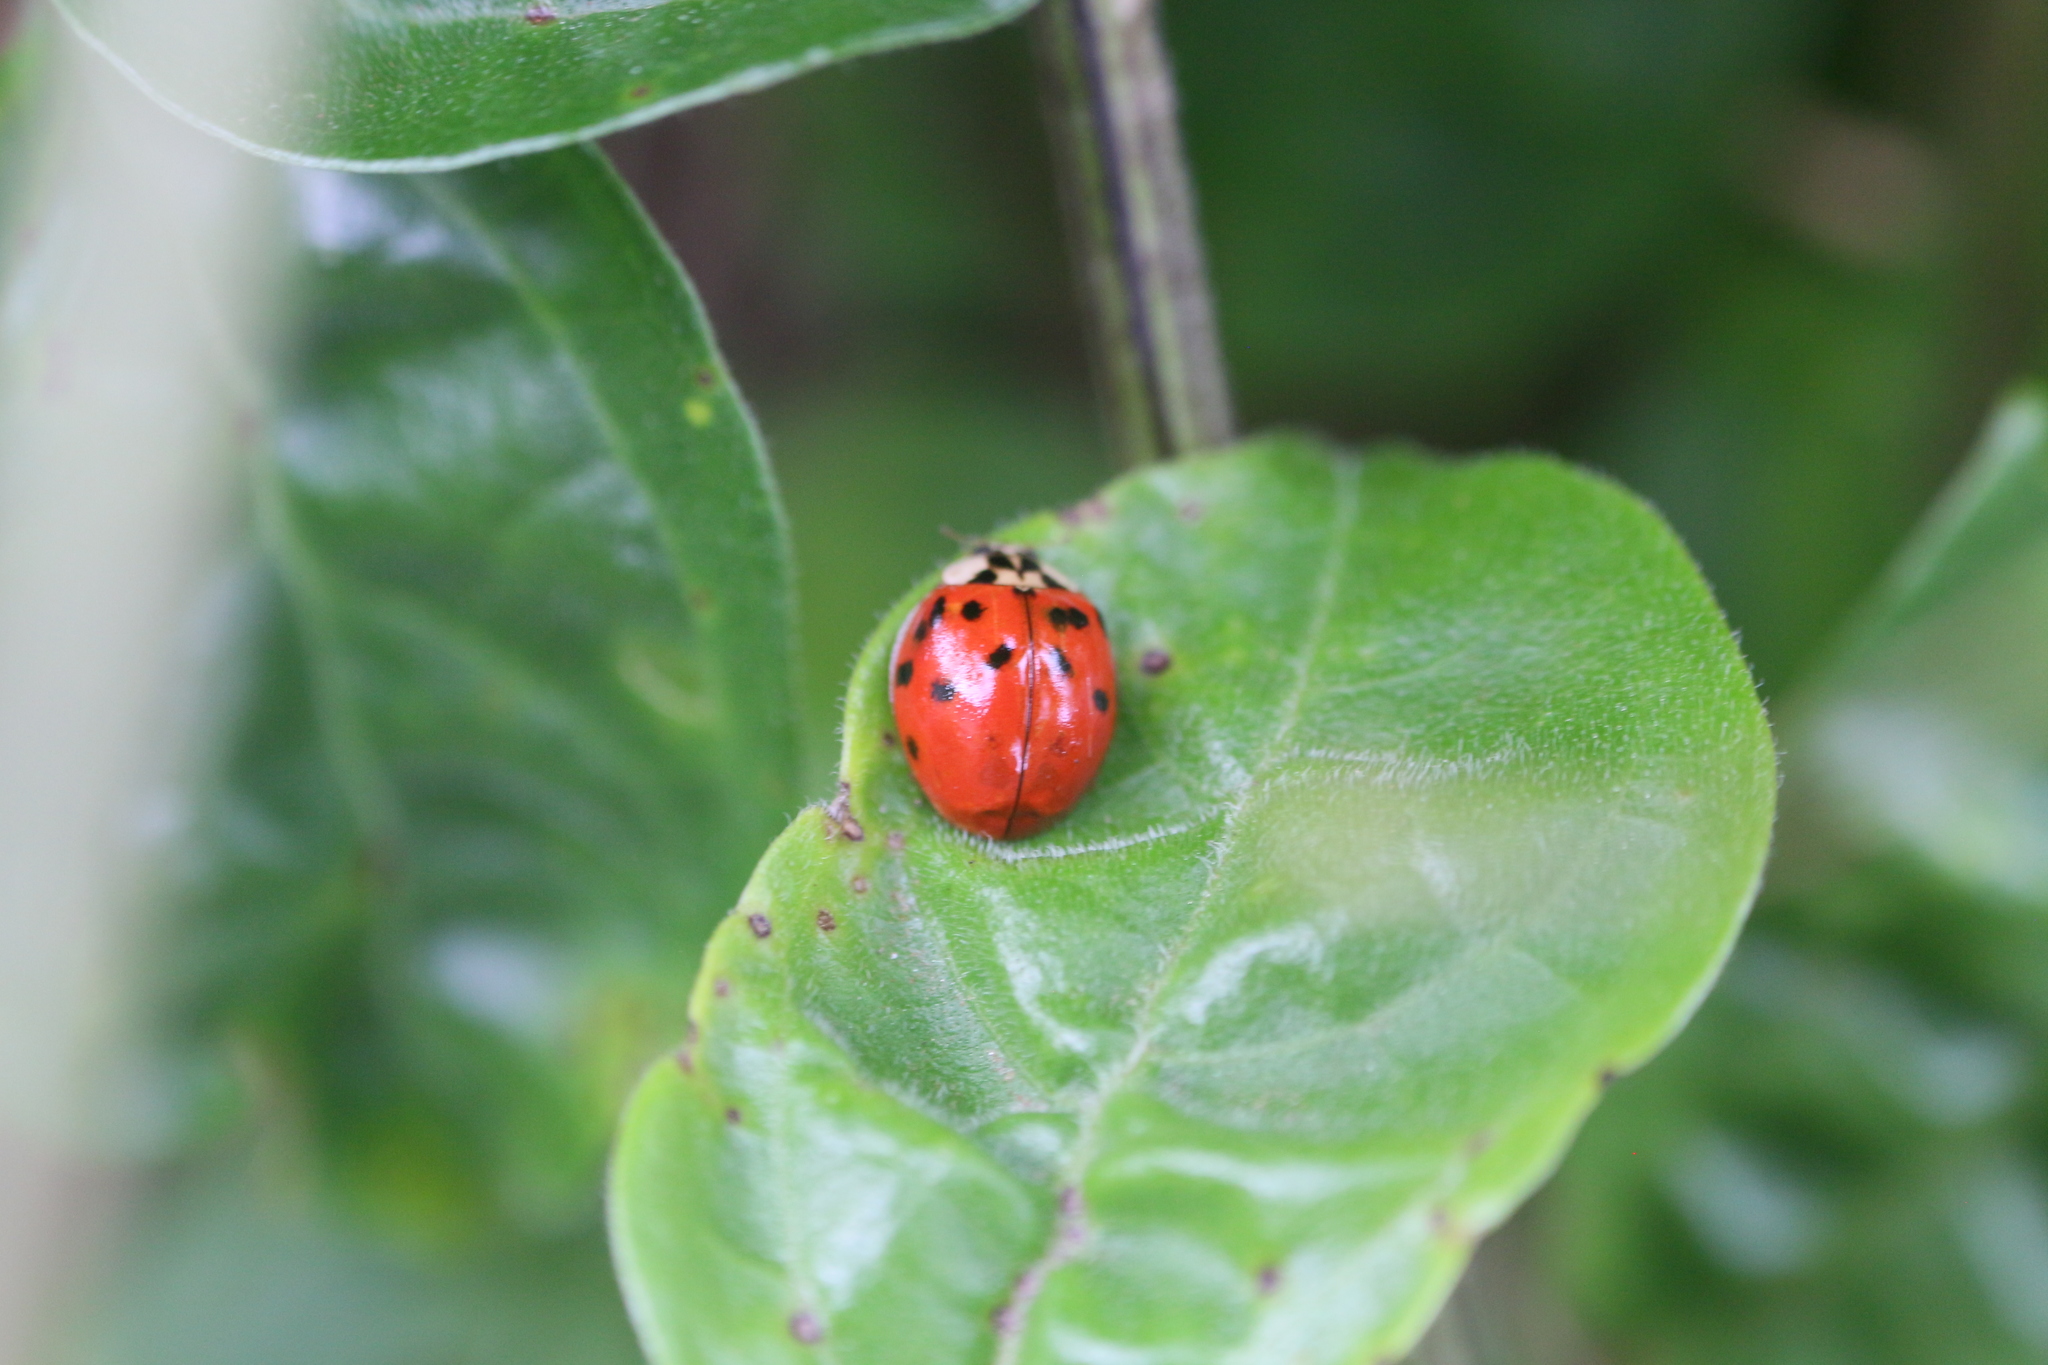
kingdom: Animalia
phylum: Arthropoda
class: Insecta
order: Coleoptera
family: Coccinellidae
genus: Harmonia
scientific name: Harmonia axyridis
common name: Harlequin ladybird
